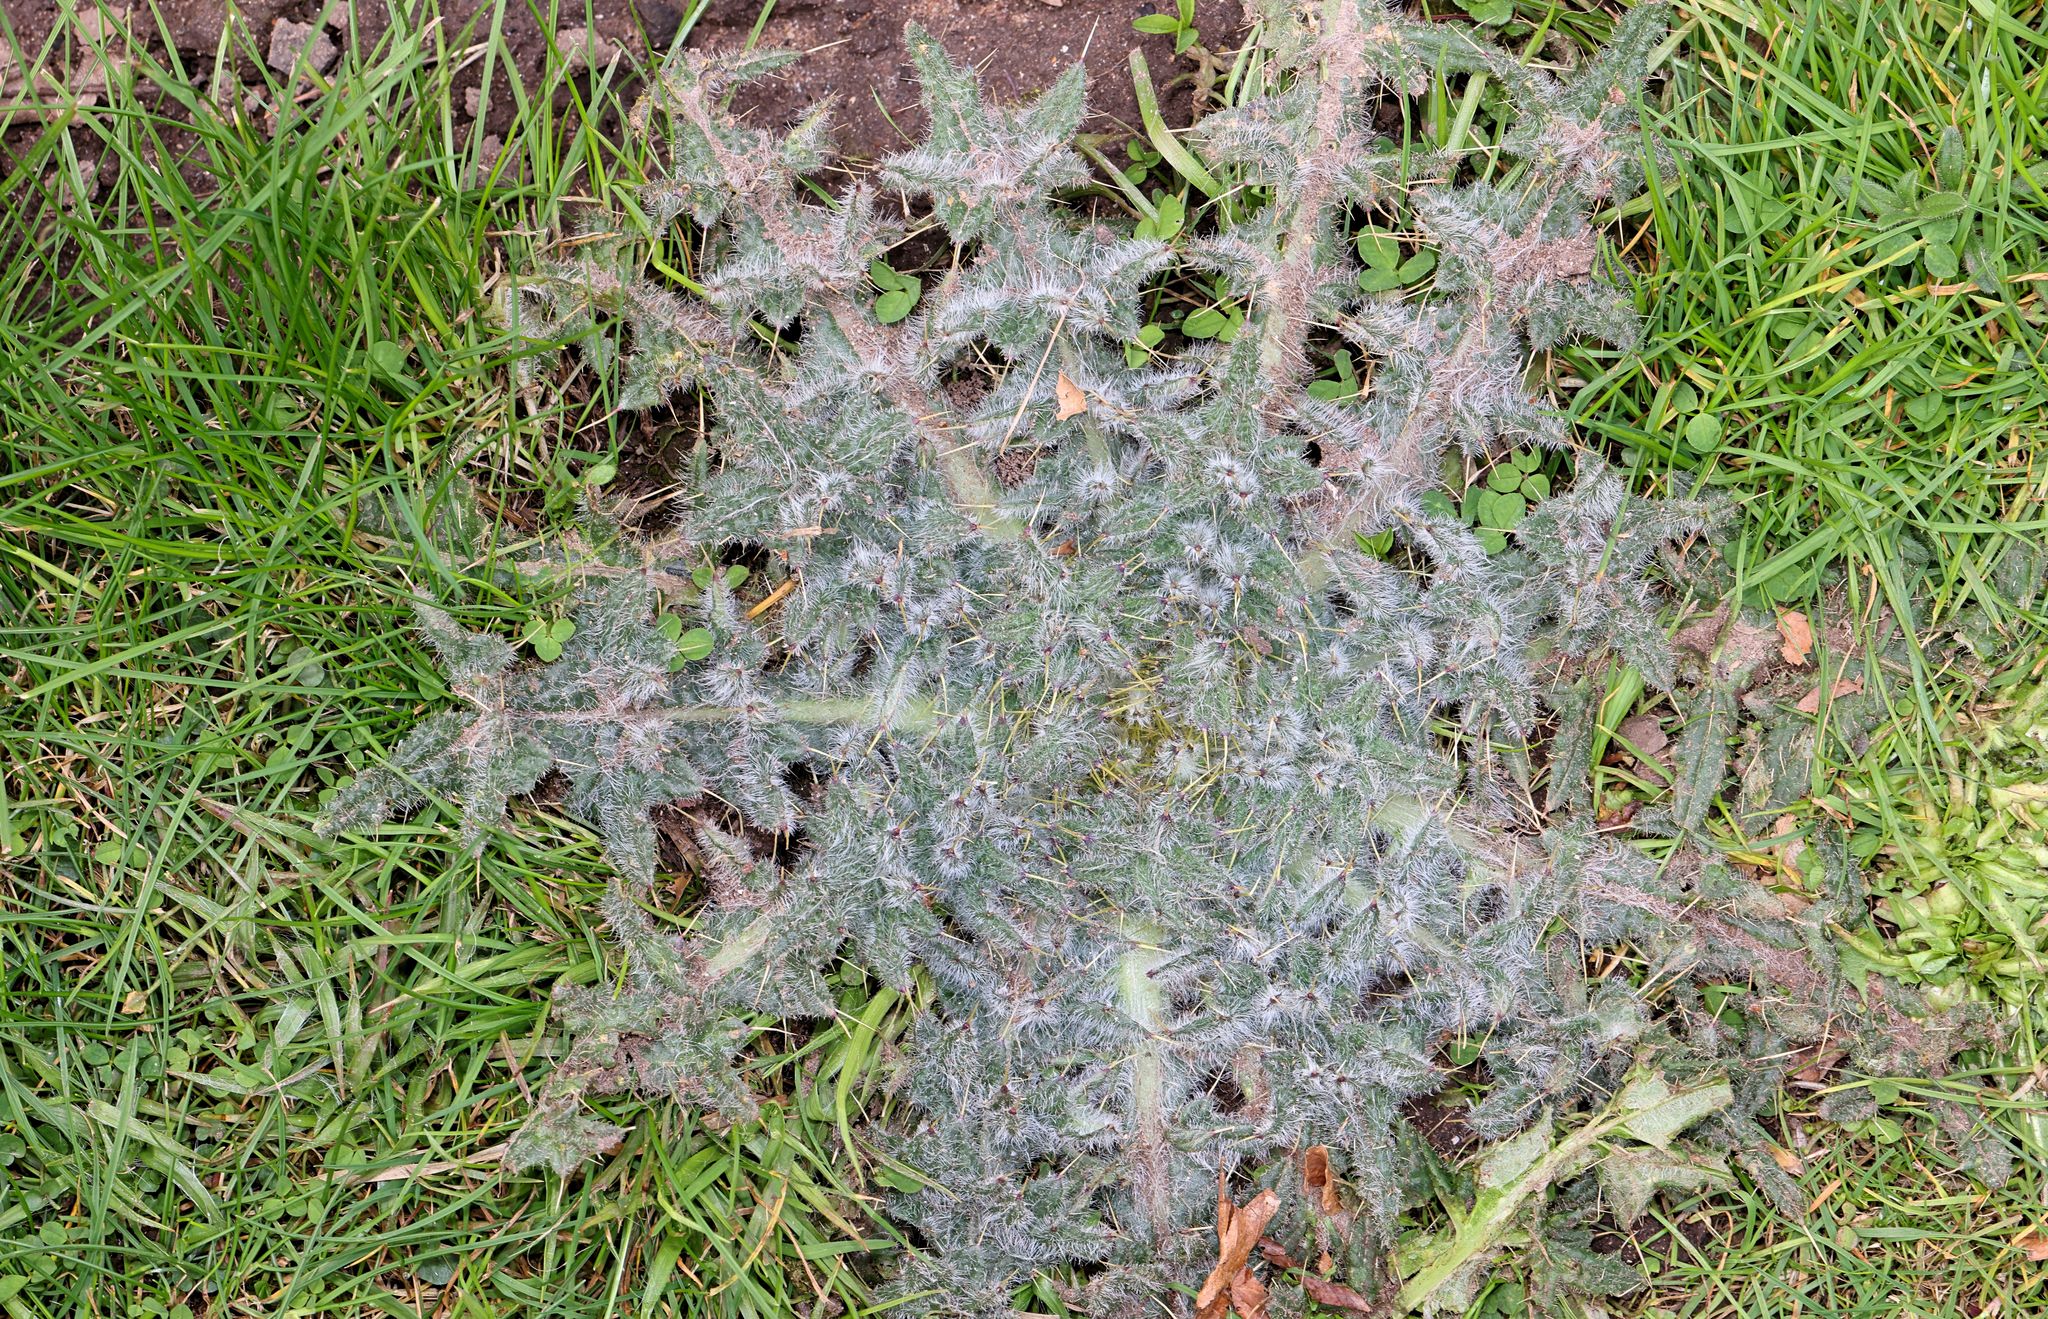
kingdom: Plantae
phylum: Tracheophyta
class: Magnoliopsida
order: Asterales
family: Asteraceae
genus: Cirsium
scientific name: Cirsium palustre
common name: Marsh thistle
